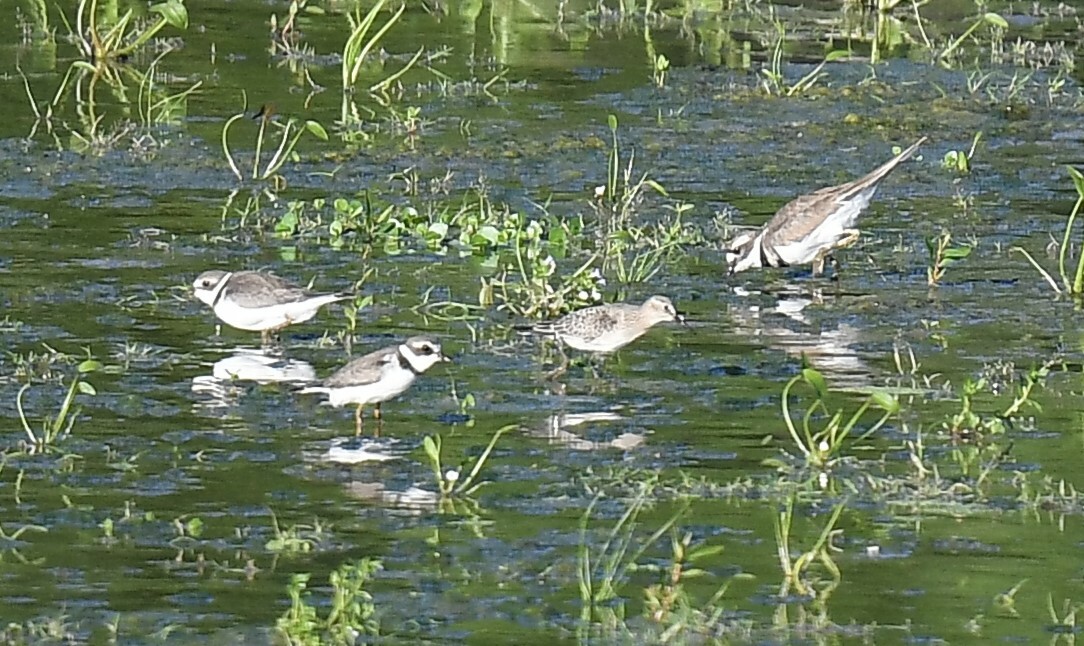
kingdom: Animalia
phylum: Chordata
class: Aves
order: Charadriiformes
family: Charadriidae
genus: Charadrius
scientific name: Charadrius vociferus
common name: Killdeer
